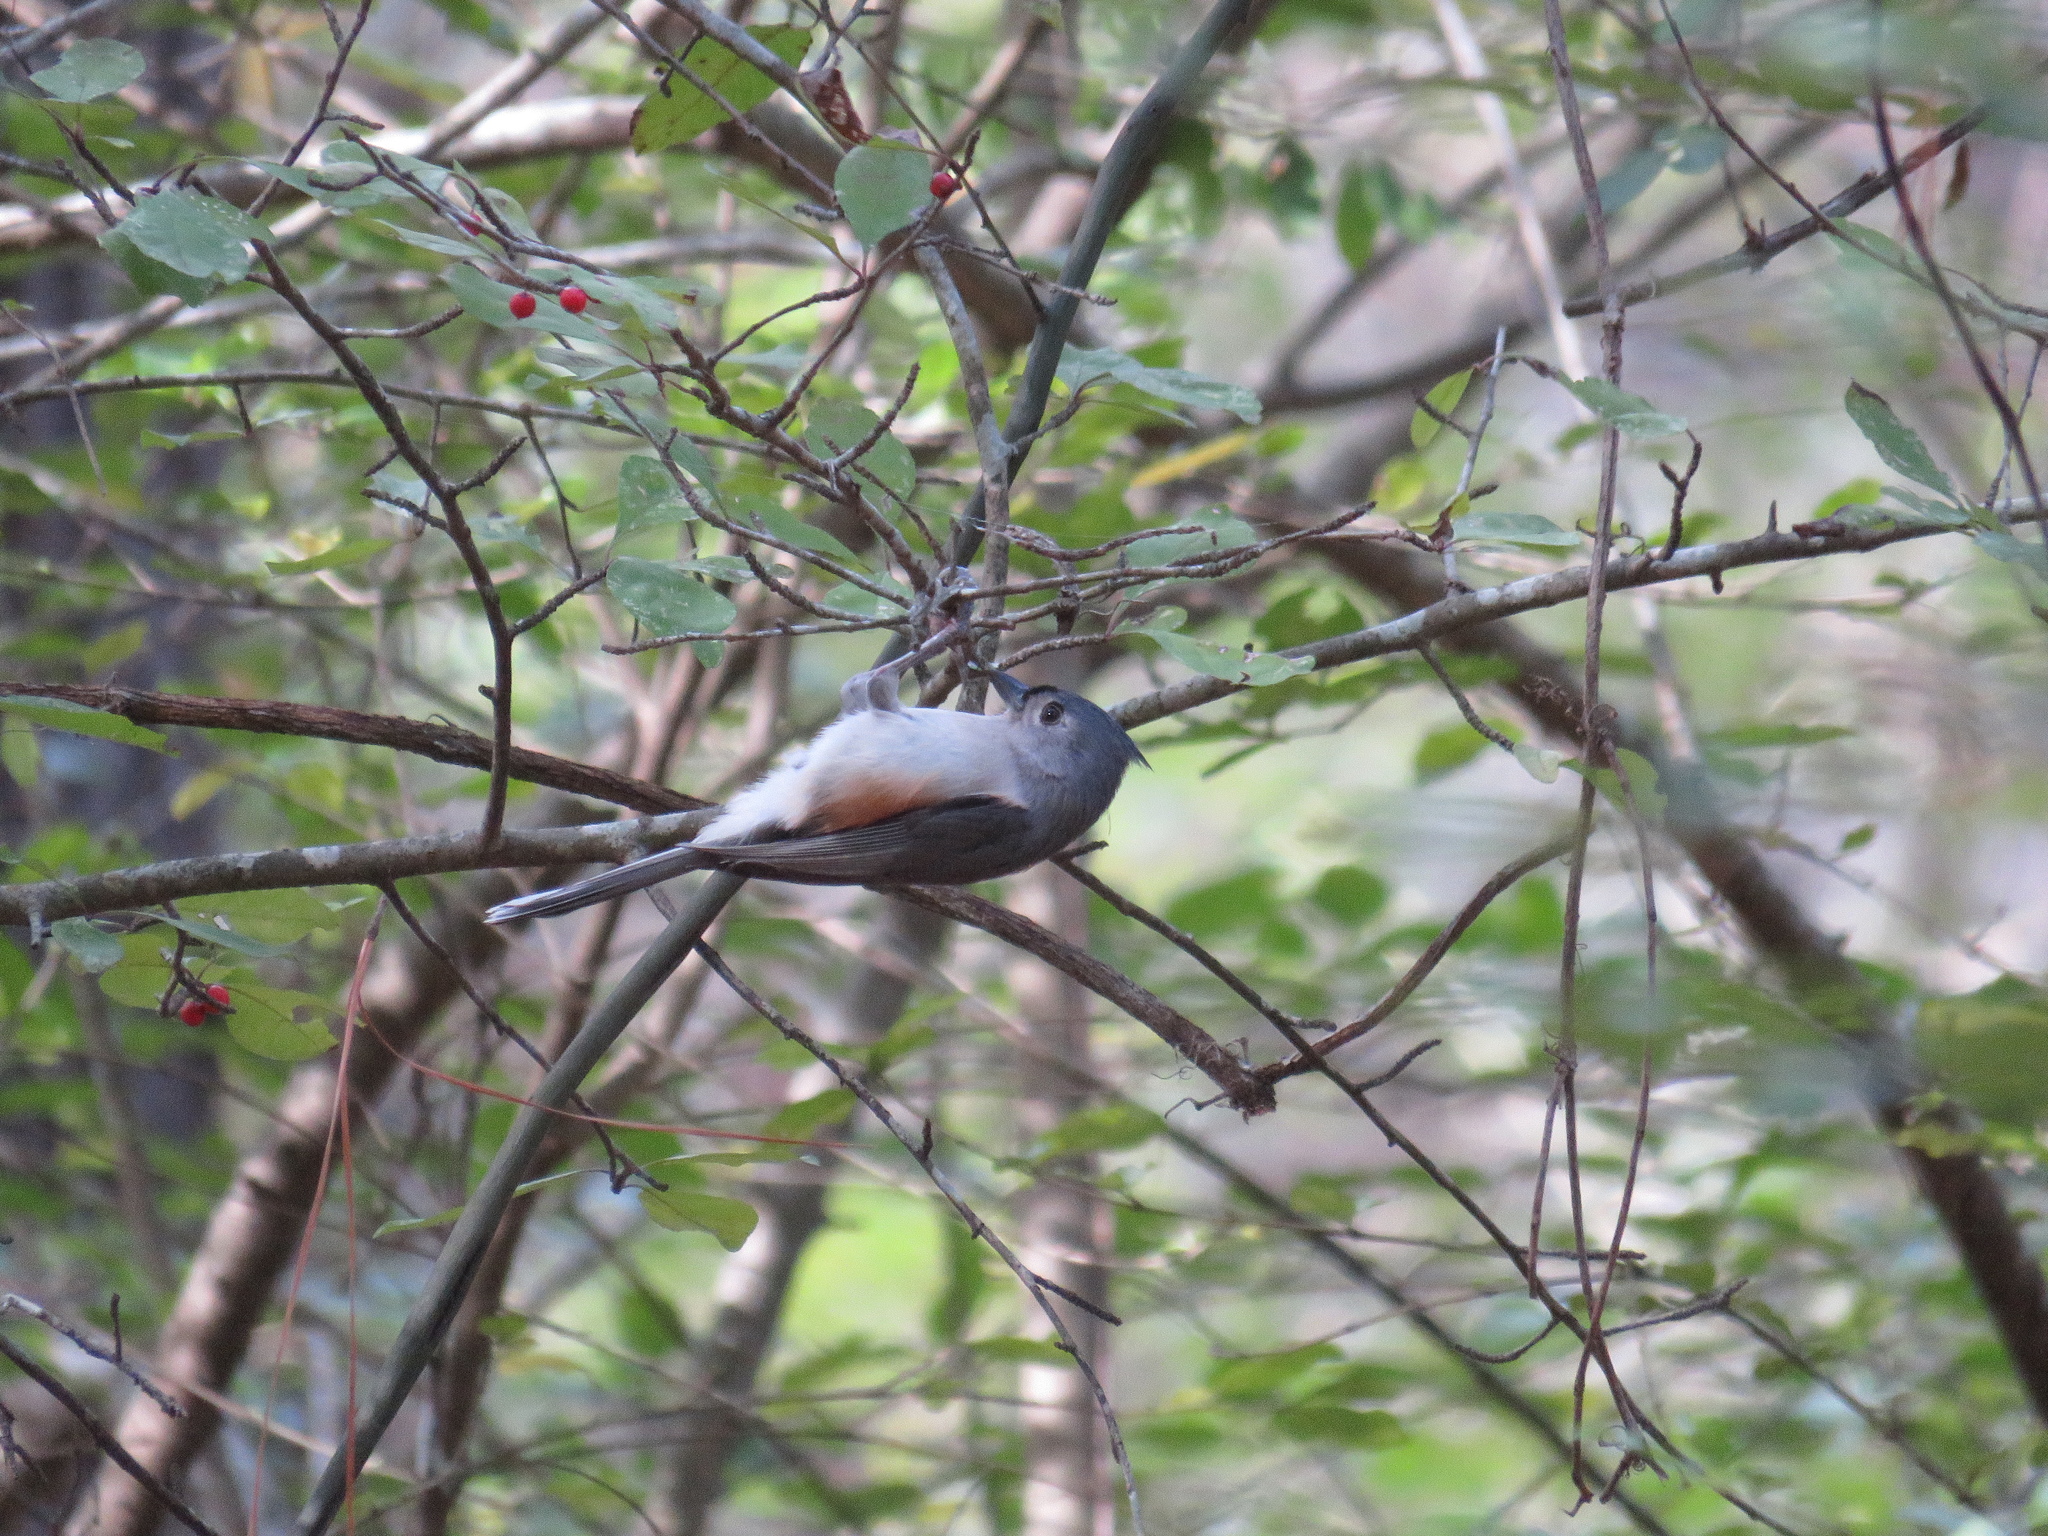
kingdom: Animalia
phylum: Chordata
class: Aves
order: Passeriformes
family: Paridae
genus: Baeolophus
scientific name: Baeolophus bicolor
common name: Tufted titmouse
